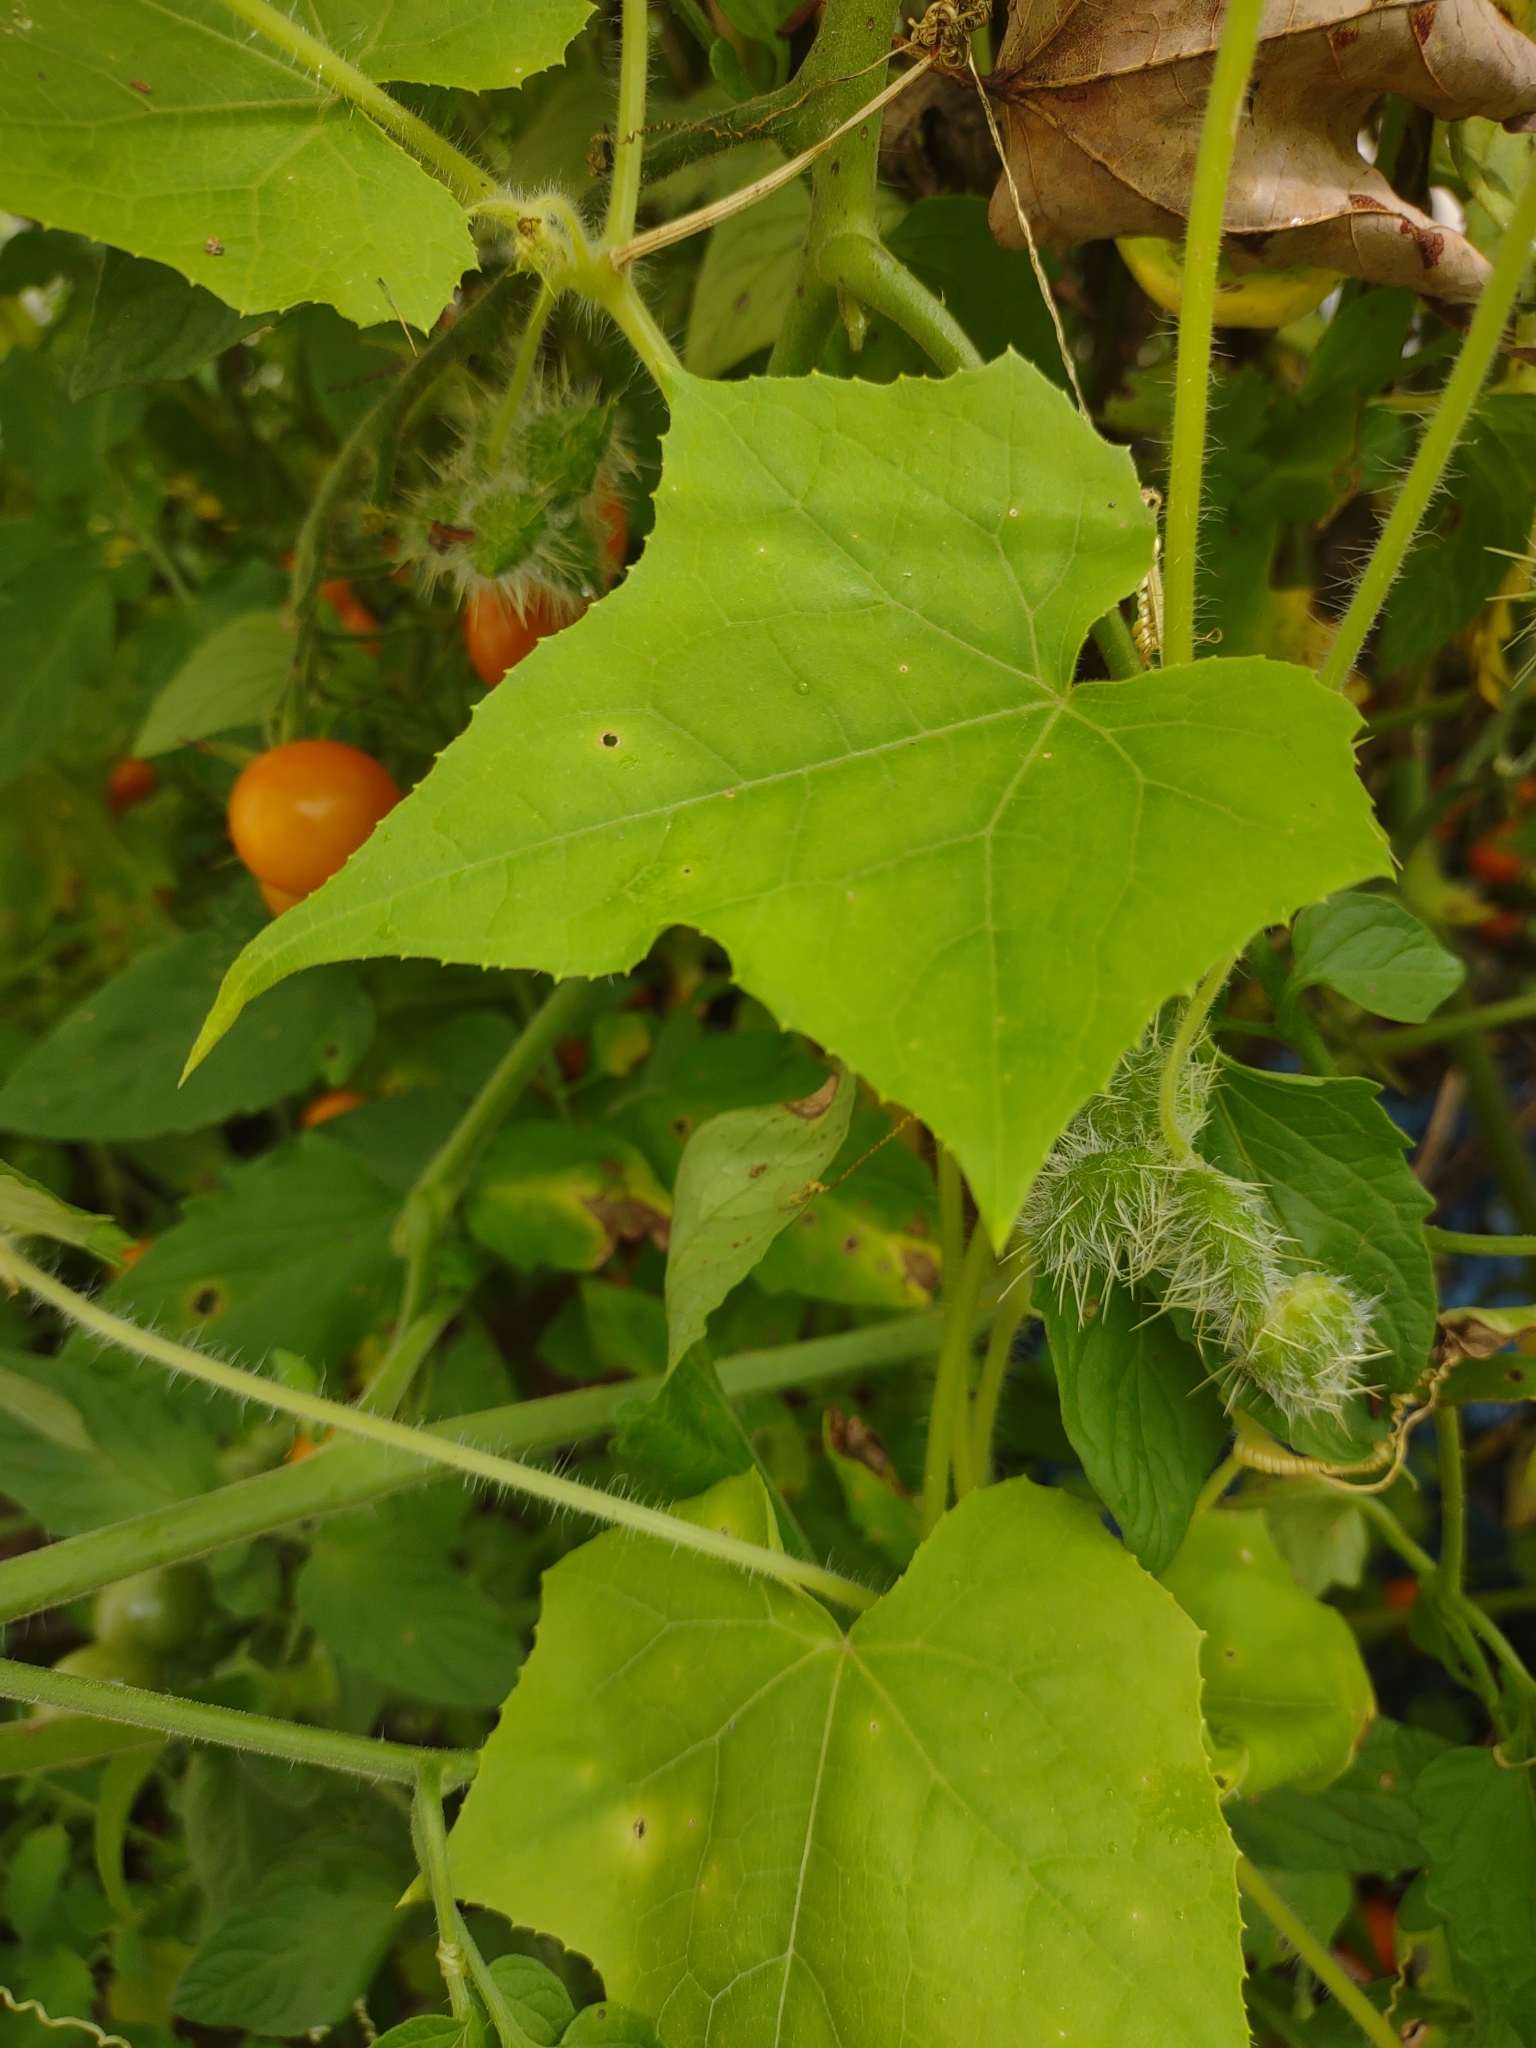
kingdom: Plantae
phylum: Tracheophyta
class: Magnoliopsida
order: Cucurbitales
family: Cucurbitaceae
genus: Sicyos
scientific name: Sicyos angulatus
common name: Angled burr cucumber
